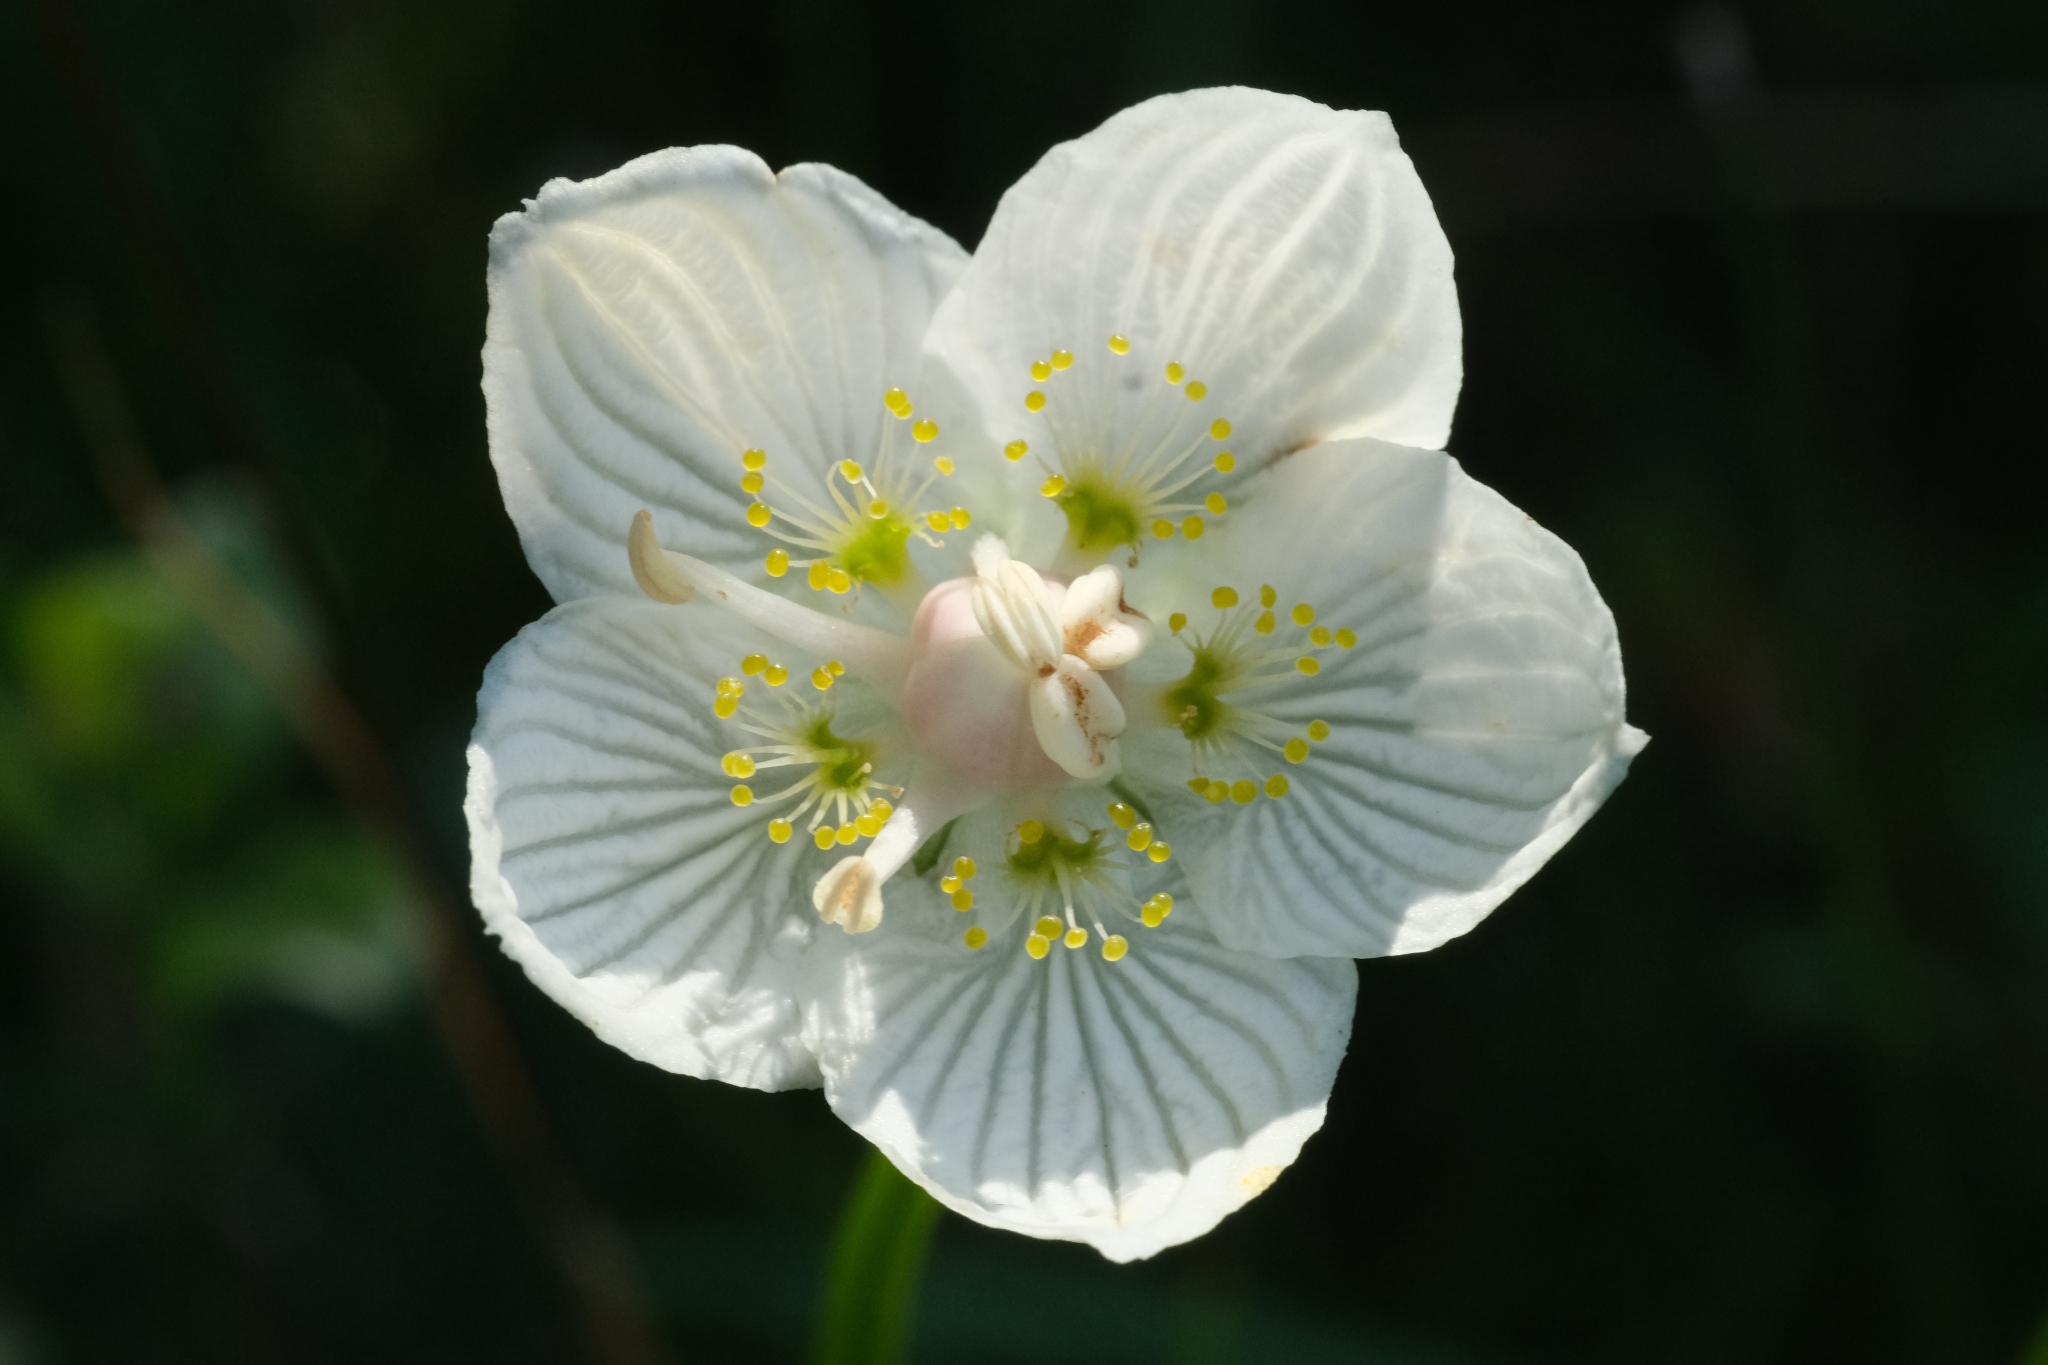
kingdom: Plantae
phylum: Tracheophyta
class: Magnoliopsida
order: Celastrales
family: Parnassiaceae
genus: Parnassia
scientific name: Parnassia palustris
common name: Grass-of-parnassus
